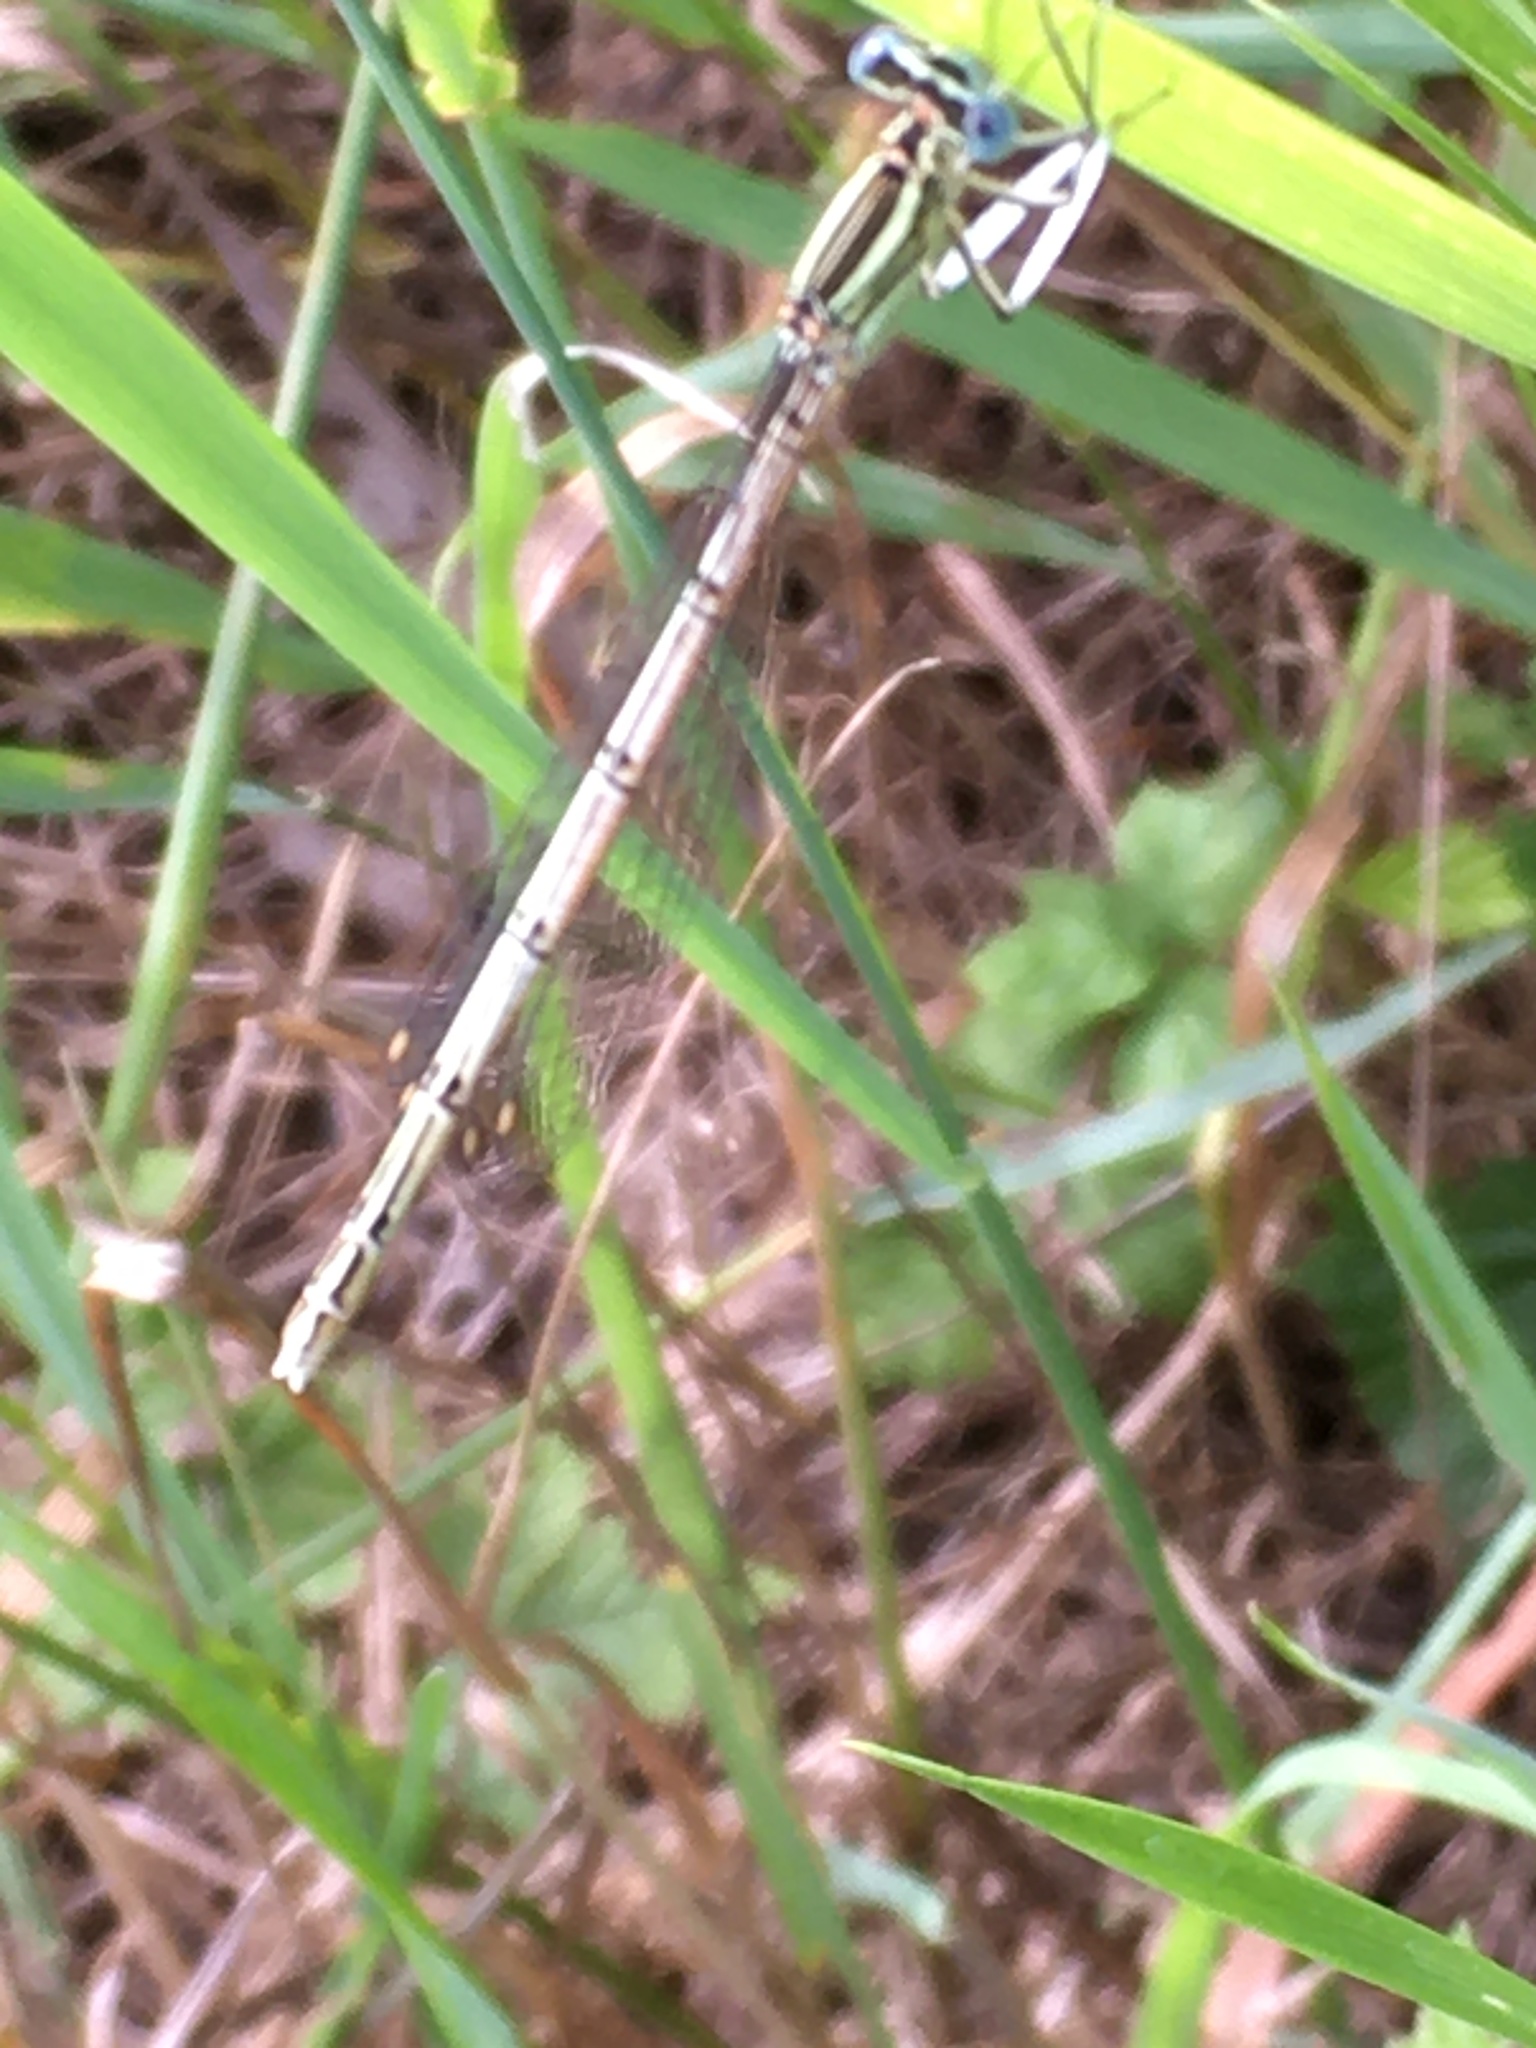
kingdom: Animalia
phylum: Arthropoda
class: Insecta
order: Odonata
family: Platycnemididae
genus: Platycnemis
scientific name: Platycnemis pennipes
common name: White-legged damselfly
